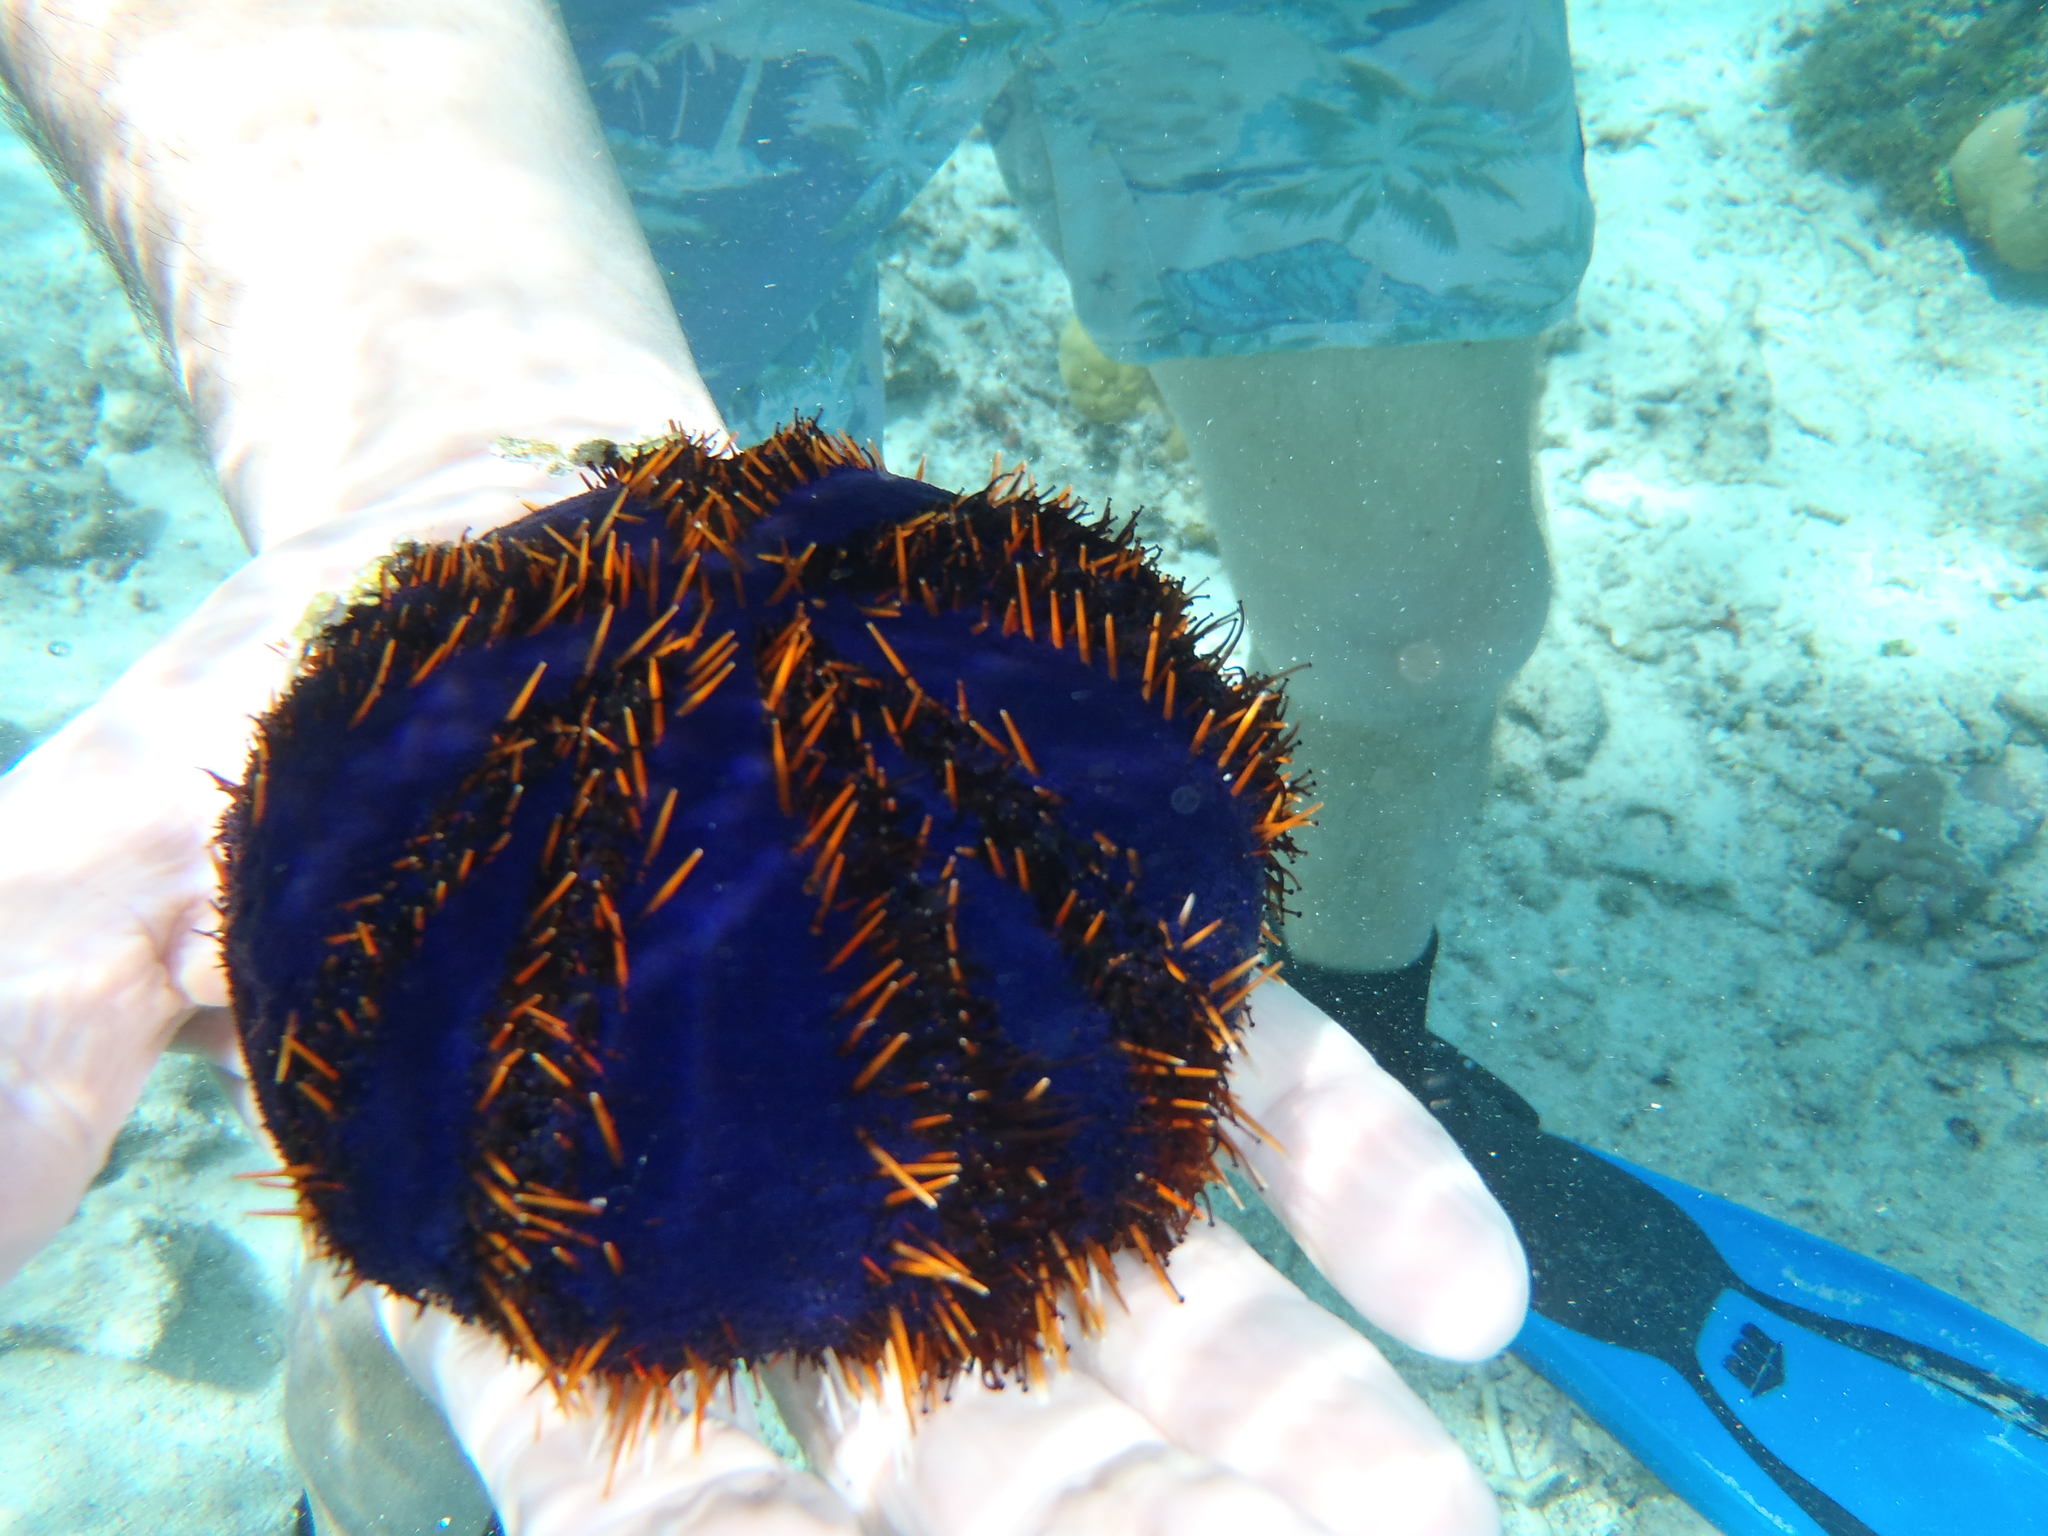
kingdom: Animalia
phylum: Echinodermata
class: Echinoidea
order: Camarodonta
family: Toxopneustidae
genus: Tripneustes
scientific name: Tripneustes gratilla
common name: Bischofsmützenseeigel
